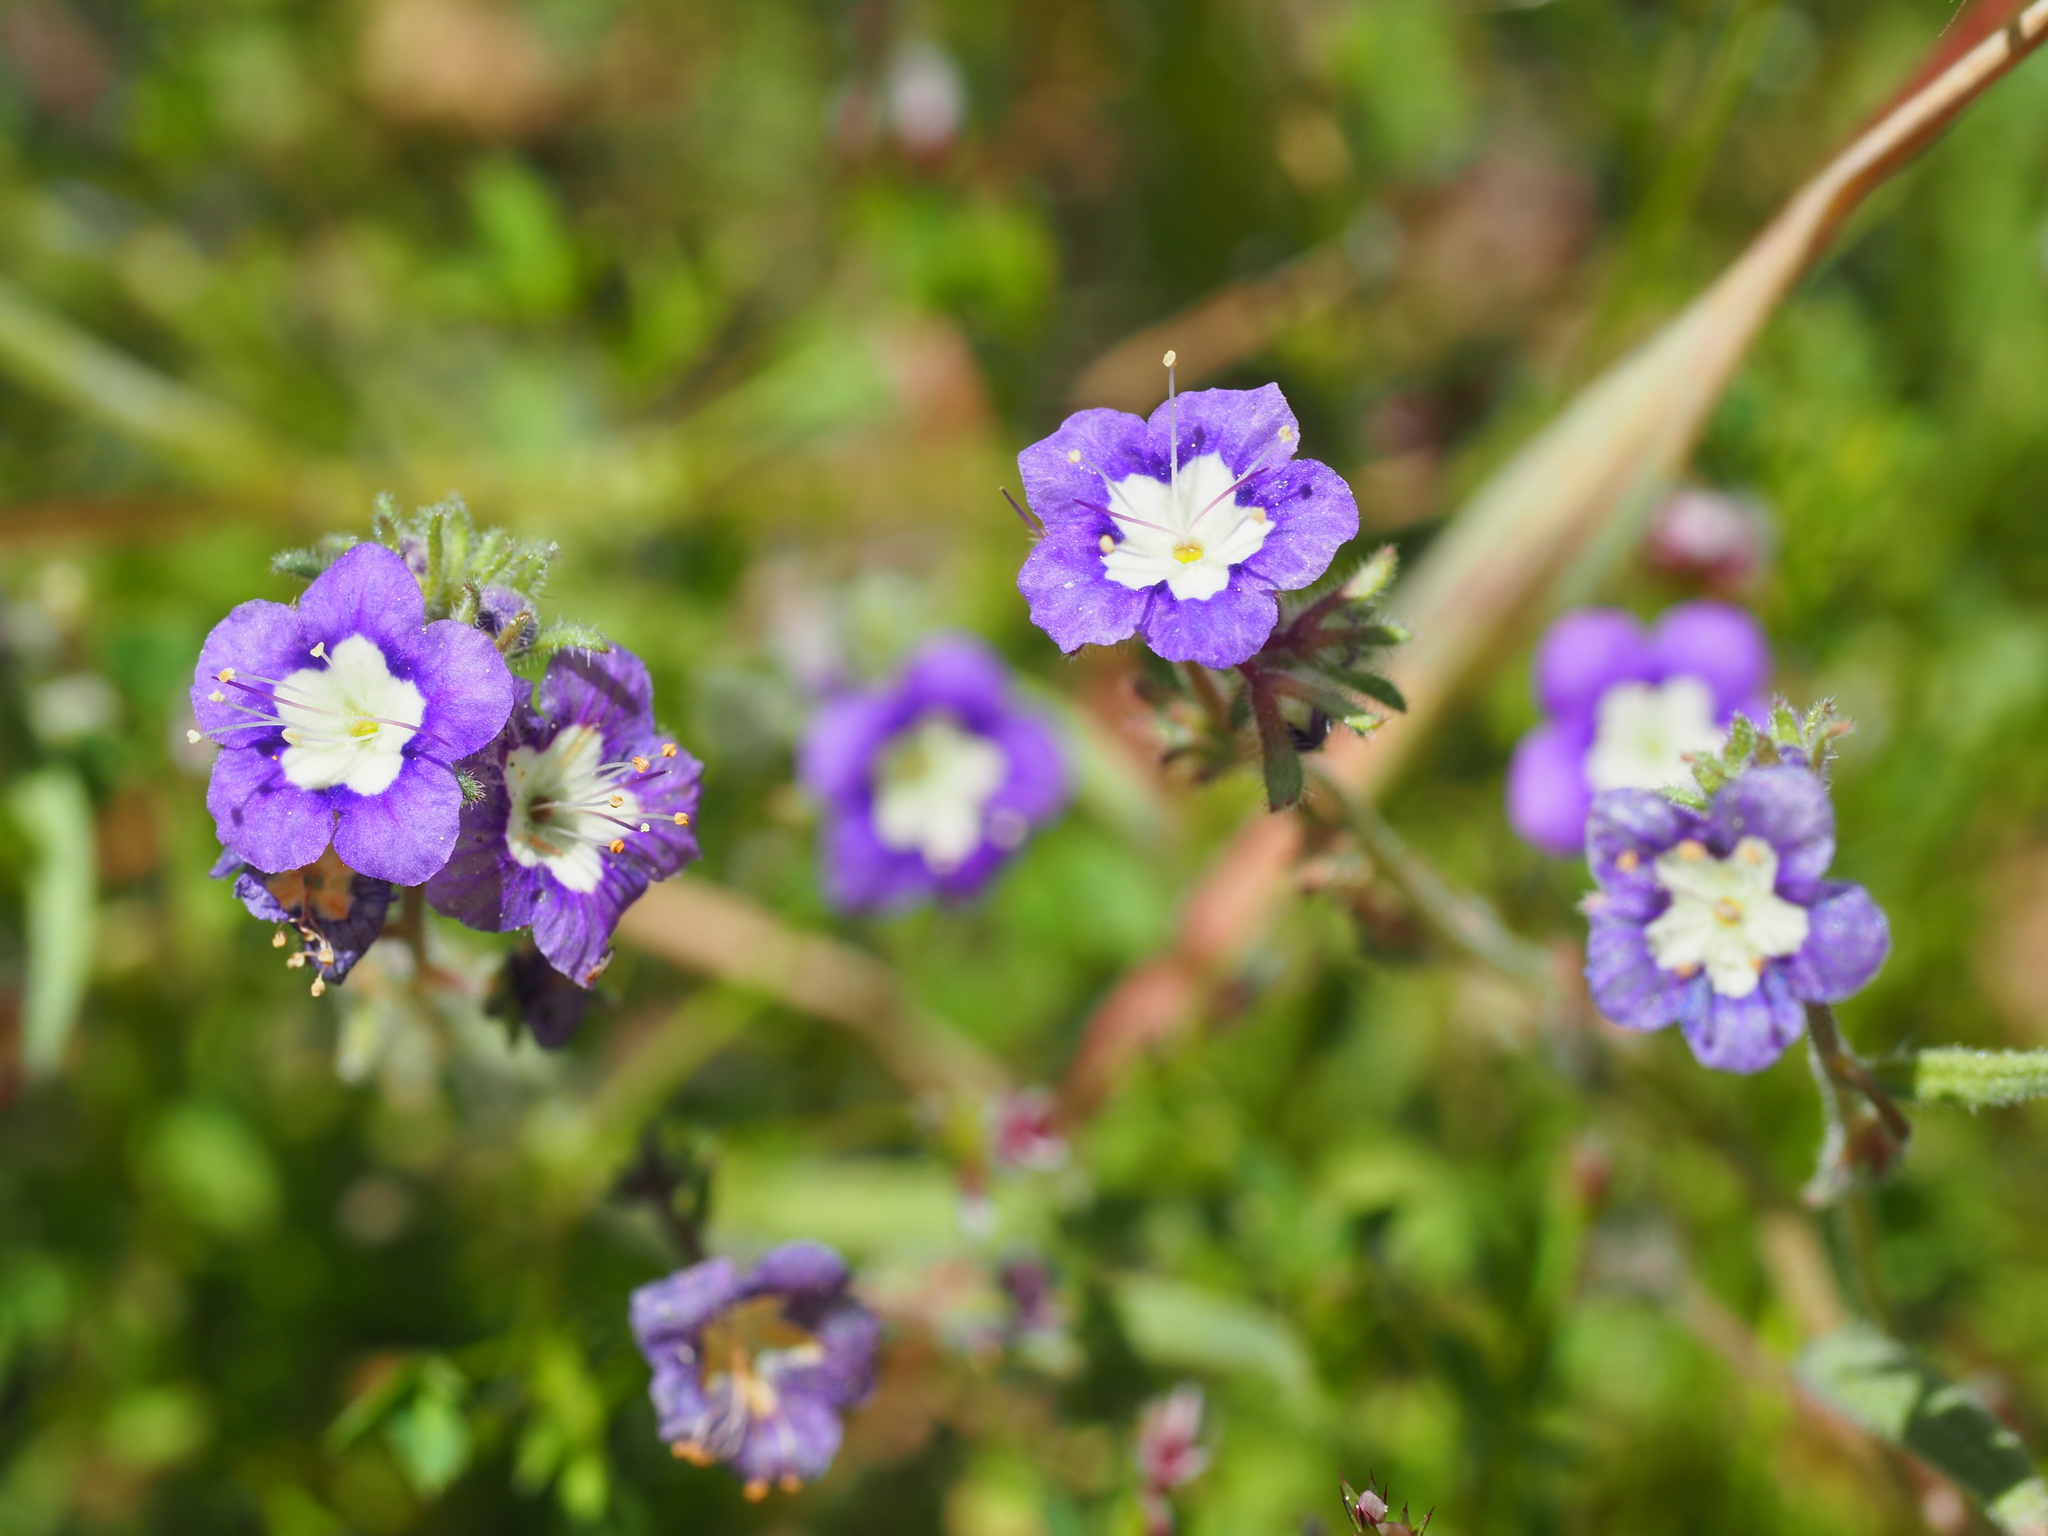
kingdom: Plantae
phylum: Tracheophyta
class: Magnoliopsida
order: Boraginales
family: Hydrophyllaceae
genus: Phacelia
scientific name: Phacelia orogenes
